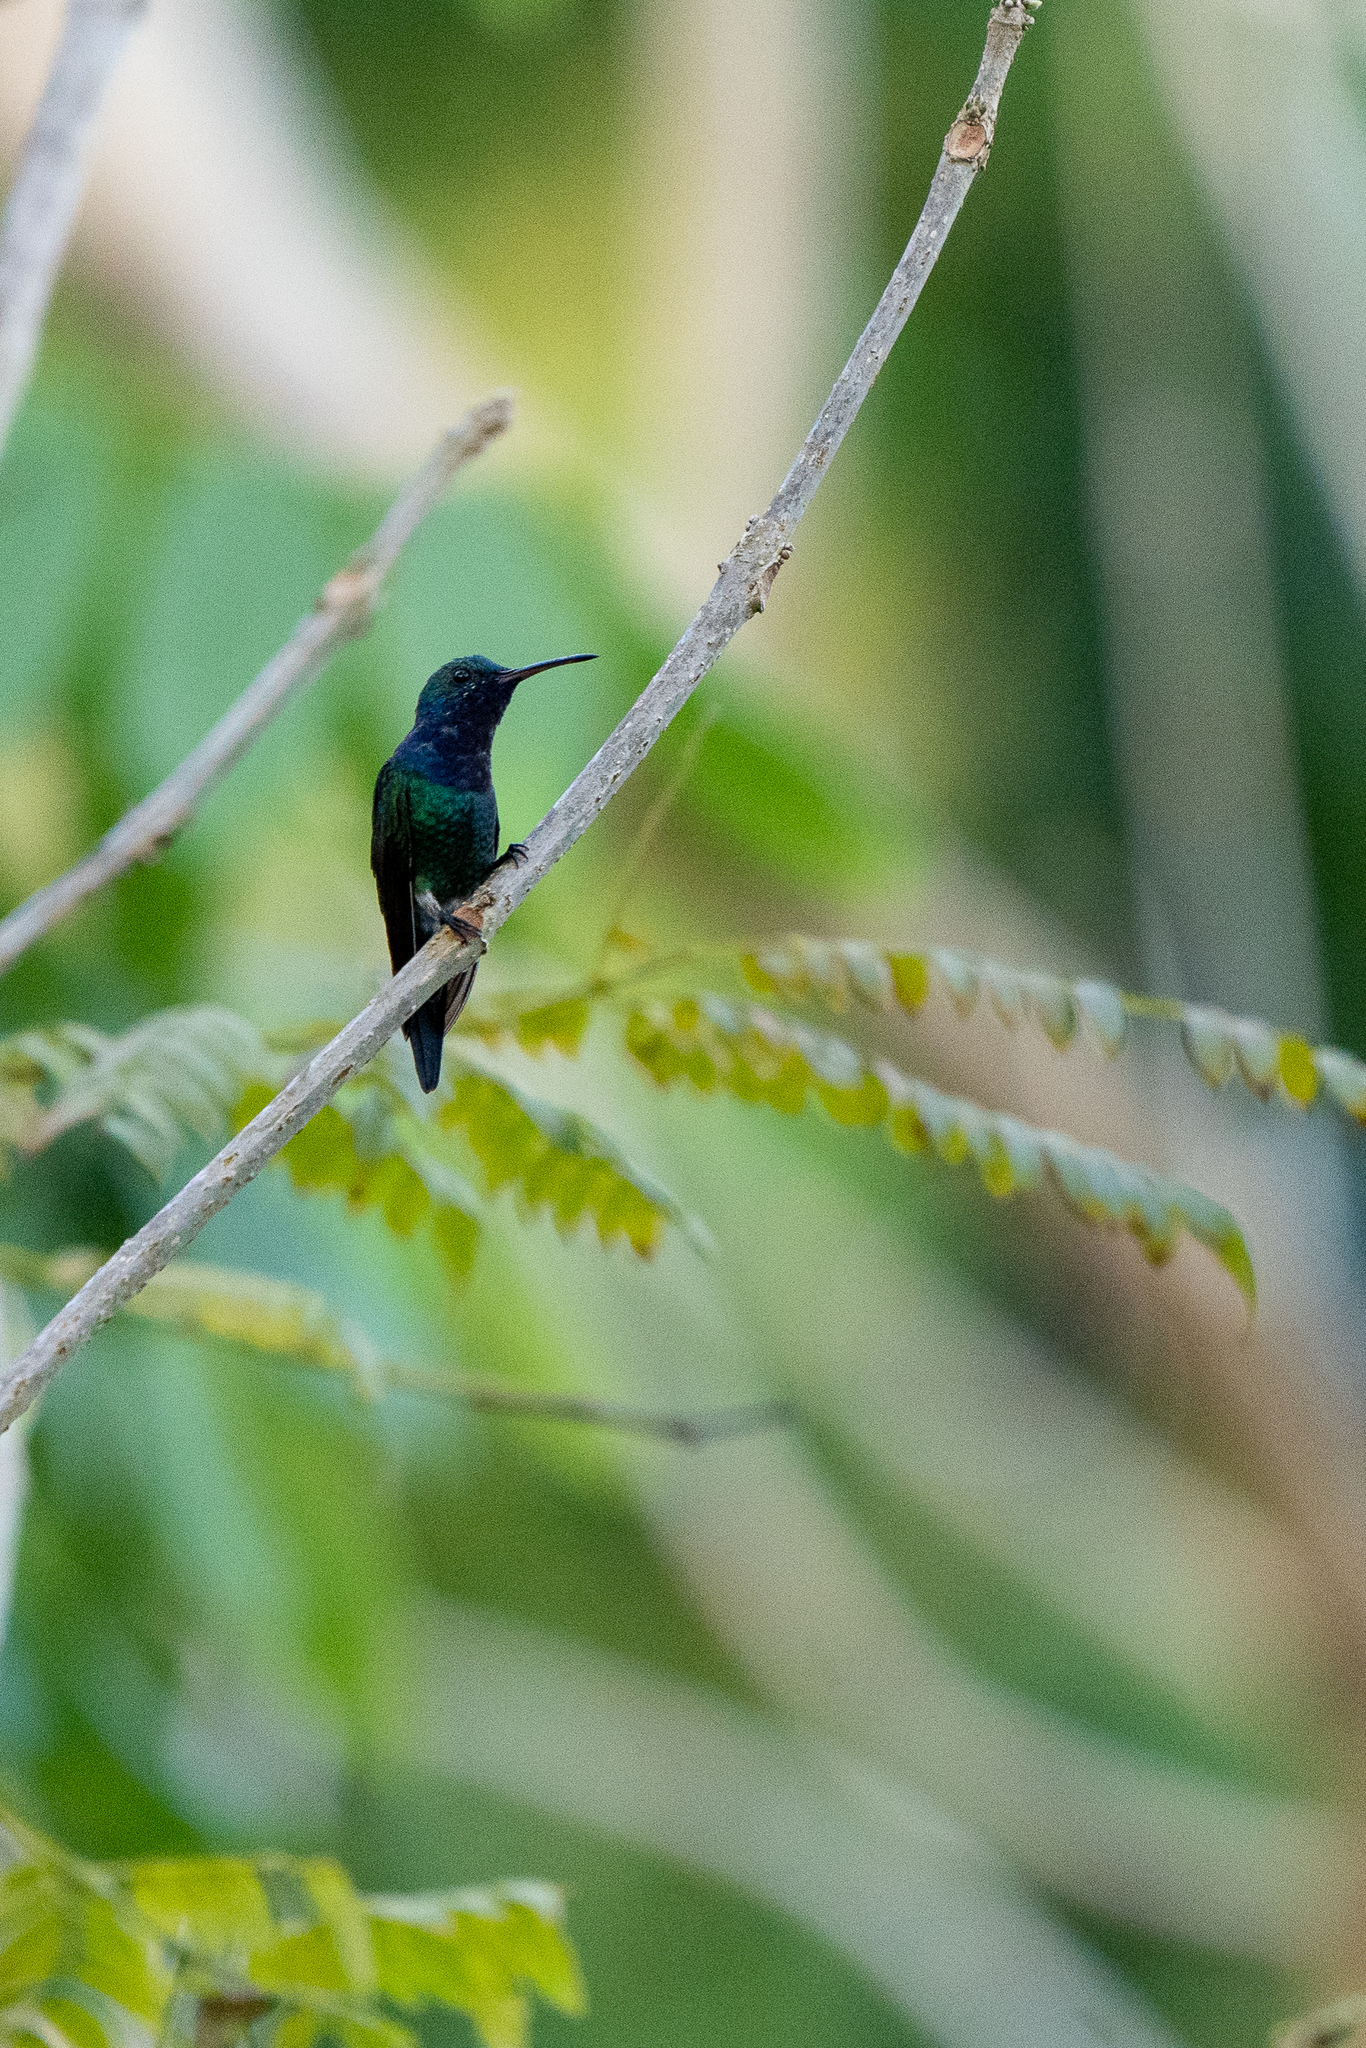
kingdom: Animalia
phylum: Chordata
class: Aves
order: Apodiformes
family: Trochilidae
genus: Chrysuronia
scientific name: Chrysuronia coeruleogularis
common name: Sapphire-throated hummingbird
